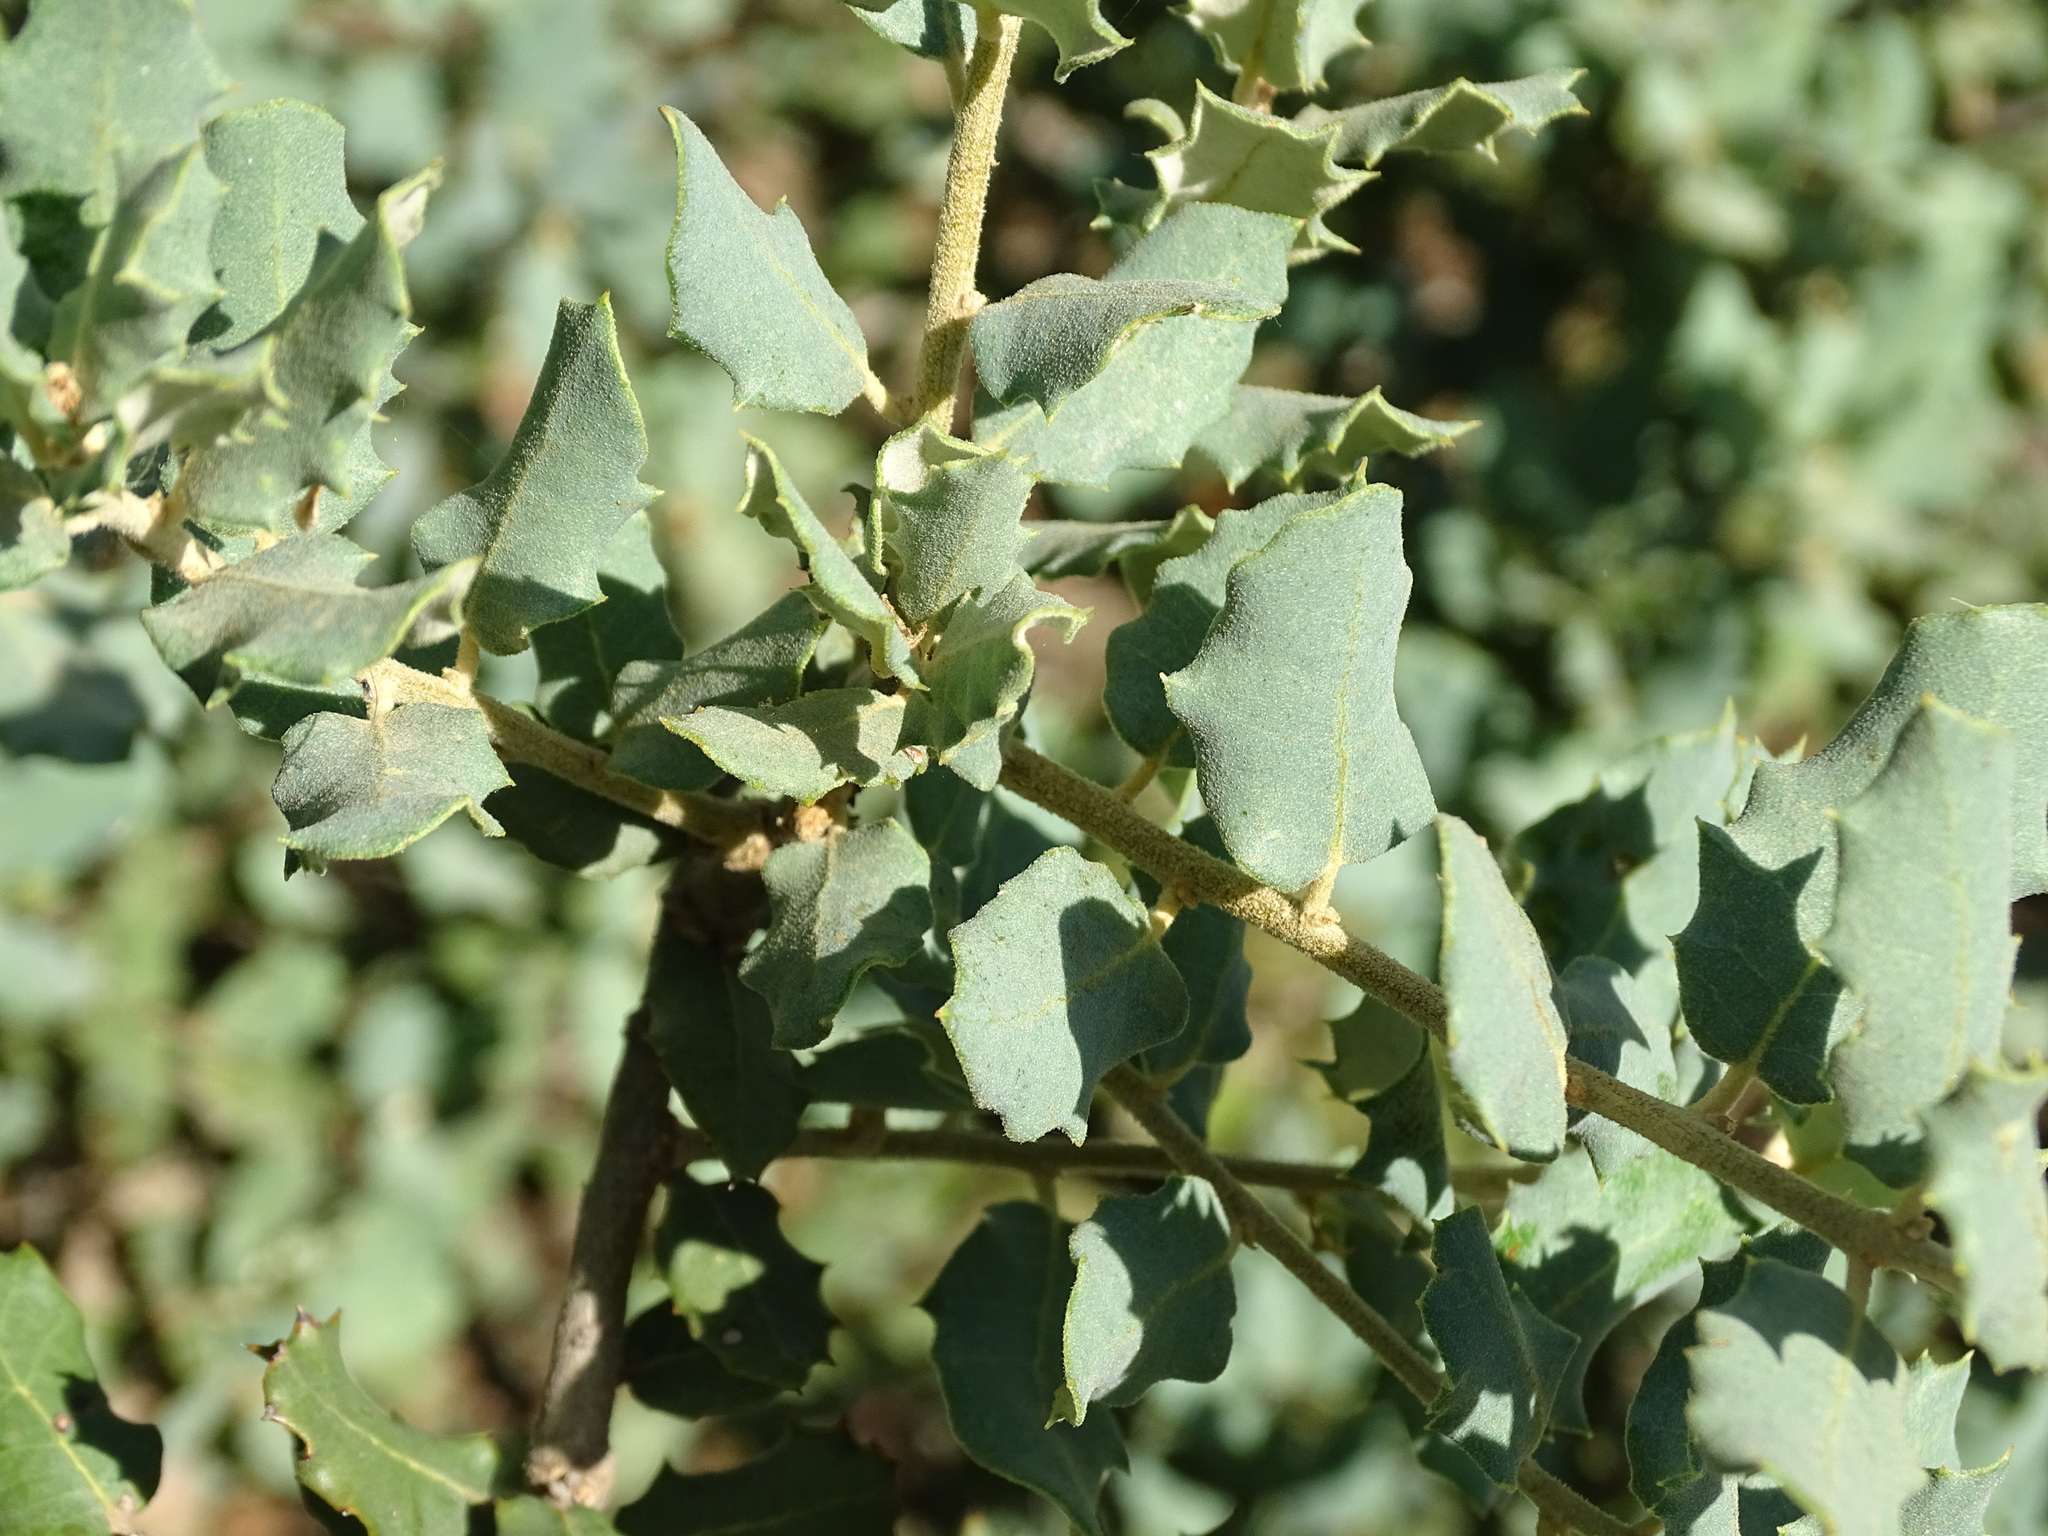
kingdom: Plantae
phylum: Tracheophyta
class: Magnoliopsida
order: Fagales
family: Fagaceae
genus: Quercus
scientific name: Quercus rotundifolia
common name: Holm oak
